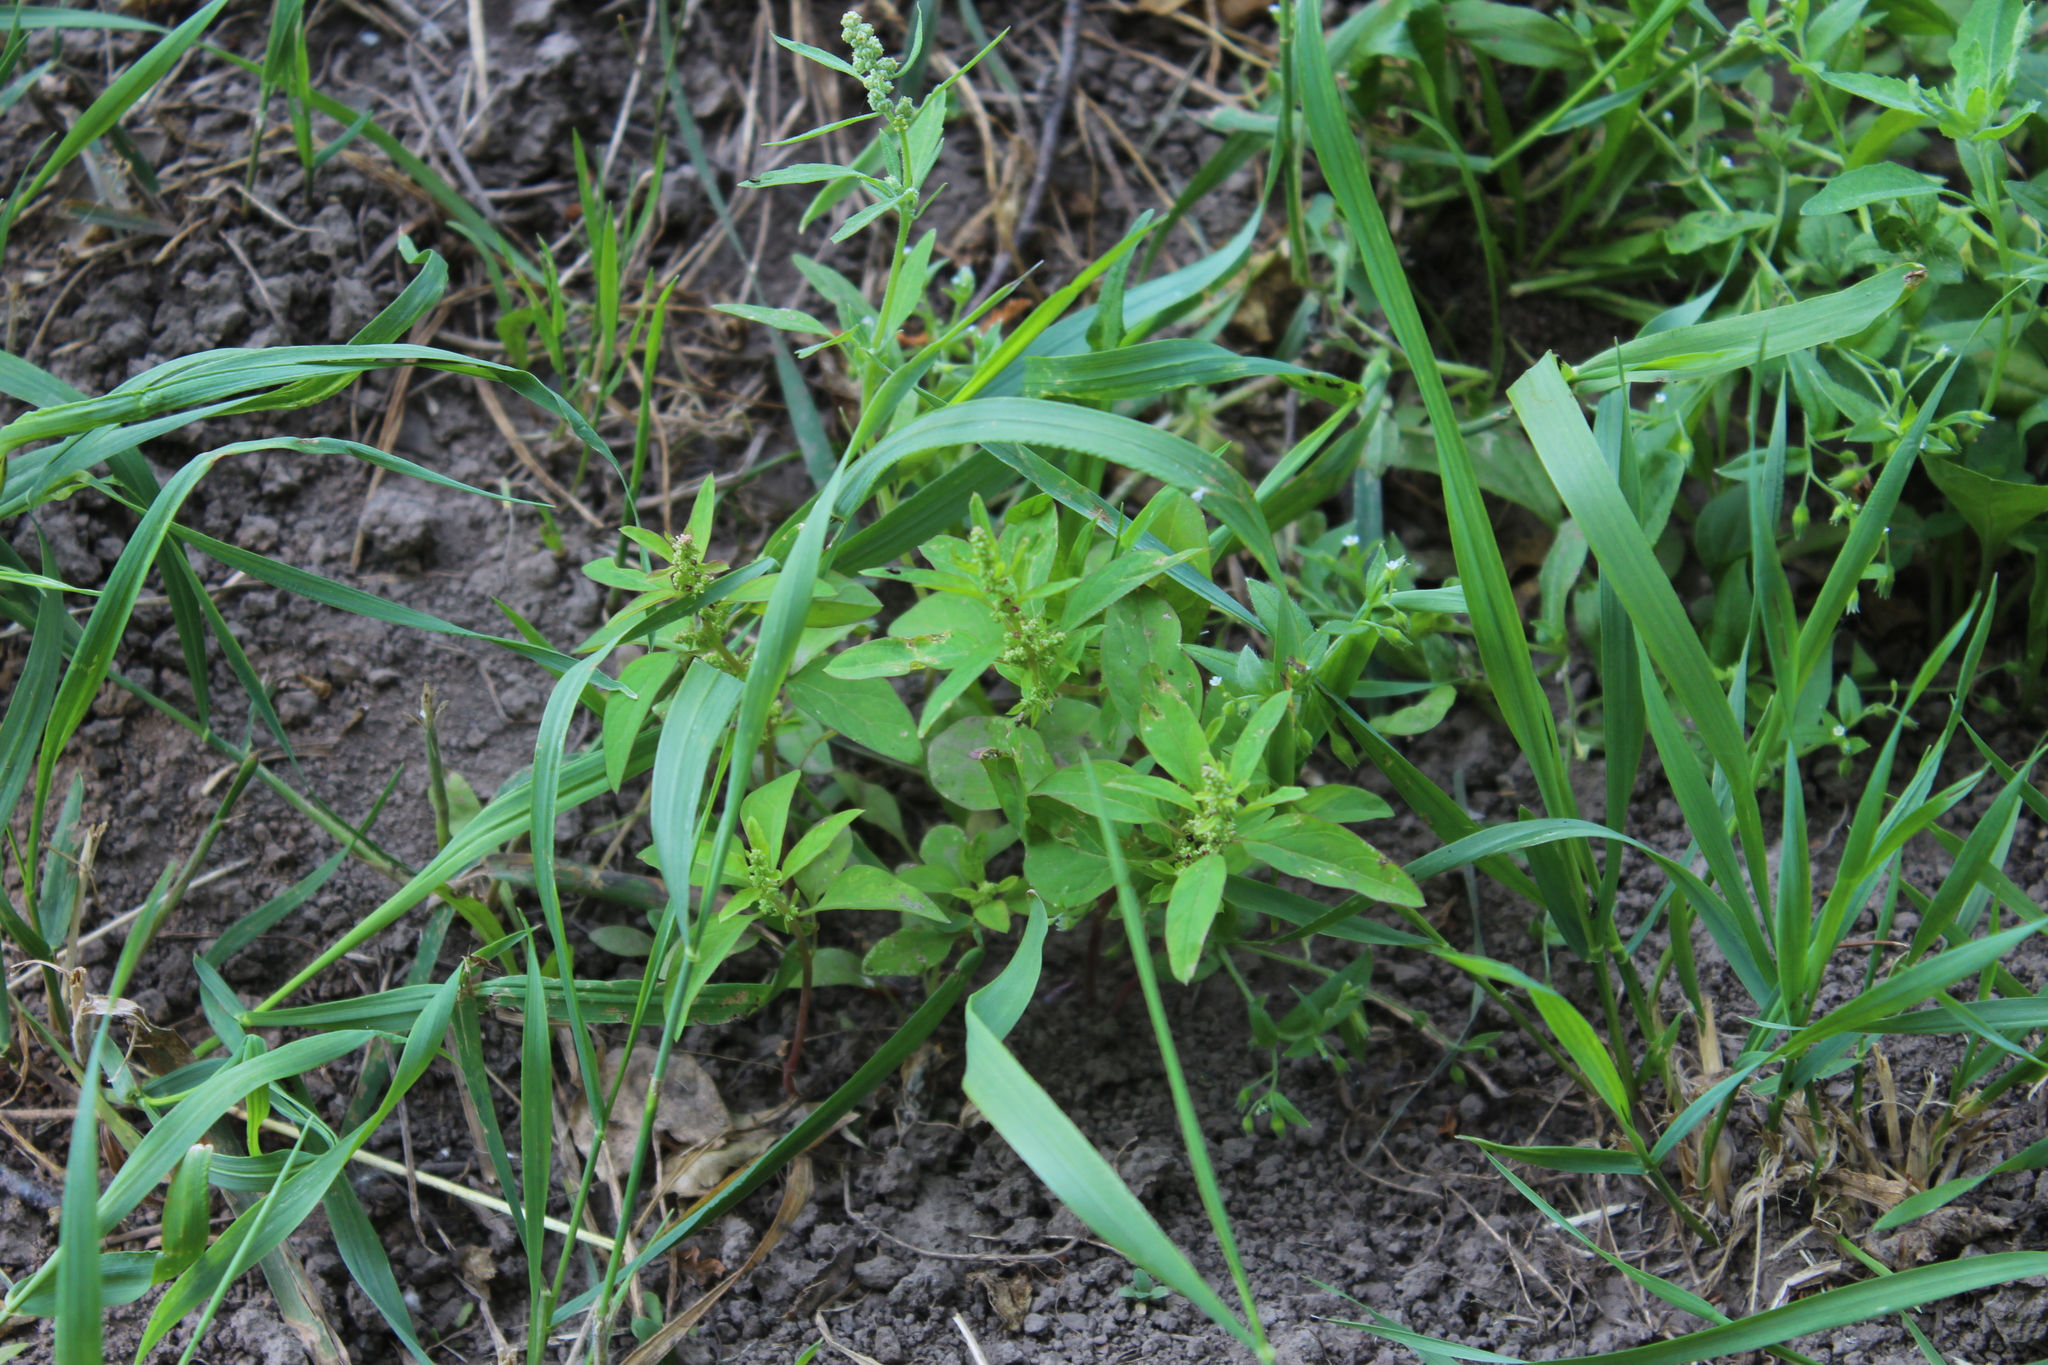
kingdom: Plantae
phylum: Tracheophyta
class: Magnoliopsida
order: Caryophyllales
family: Amaranthaceae
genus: Lipandra
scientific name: Lipandra polysperma
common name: Many-seed goosefoot
